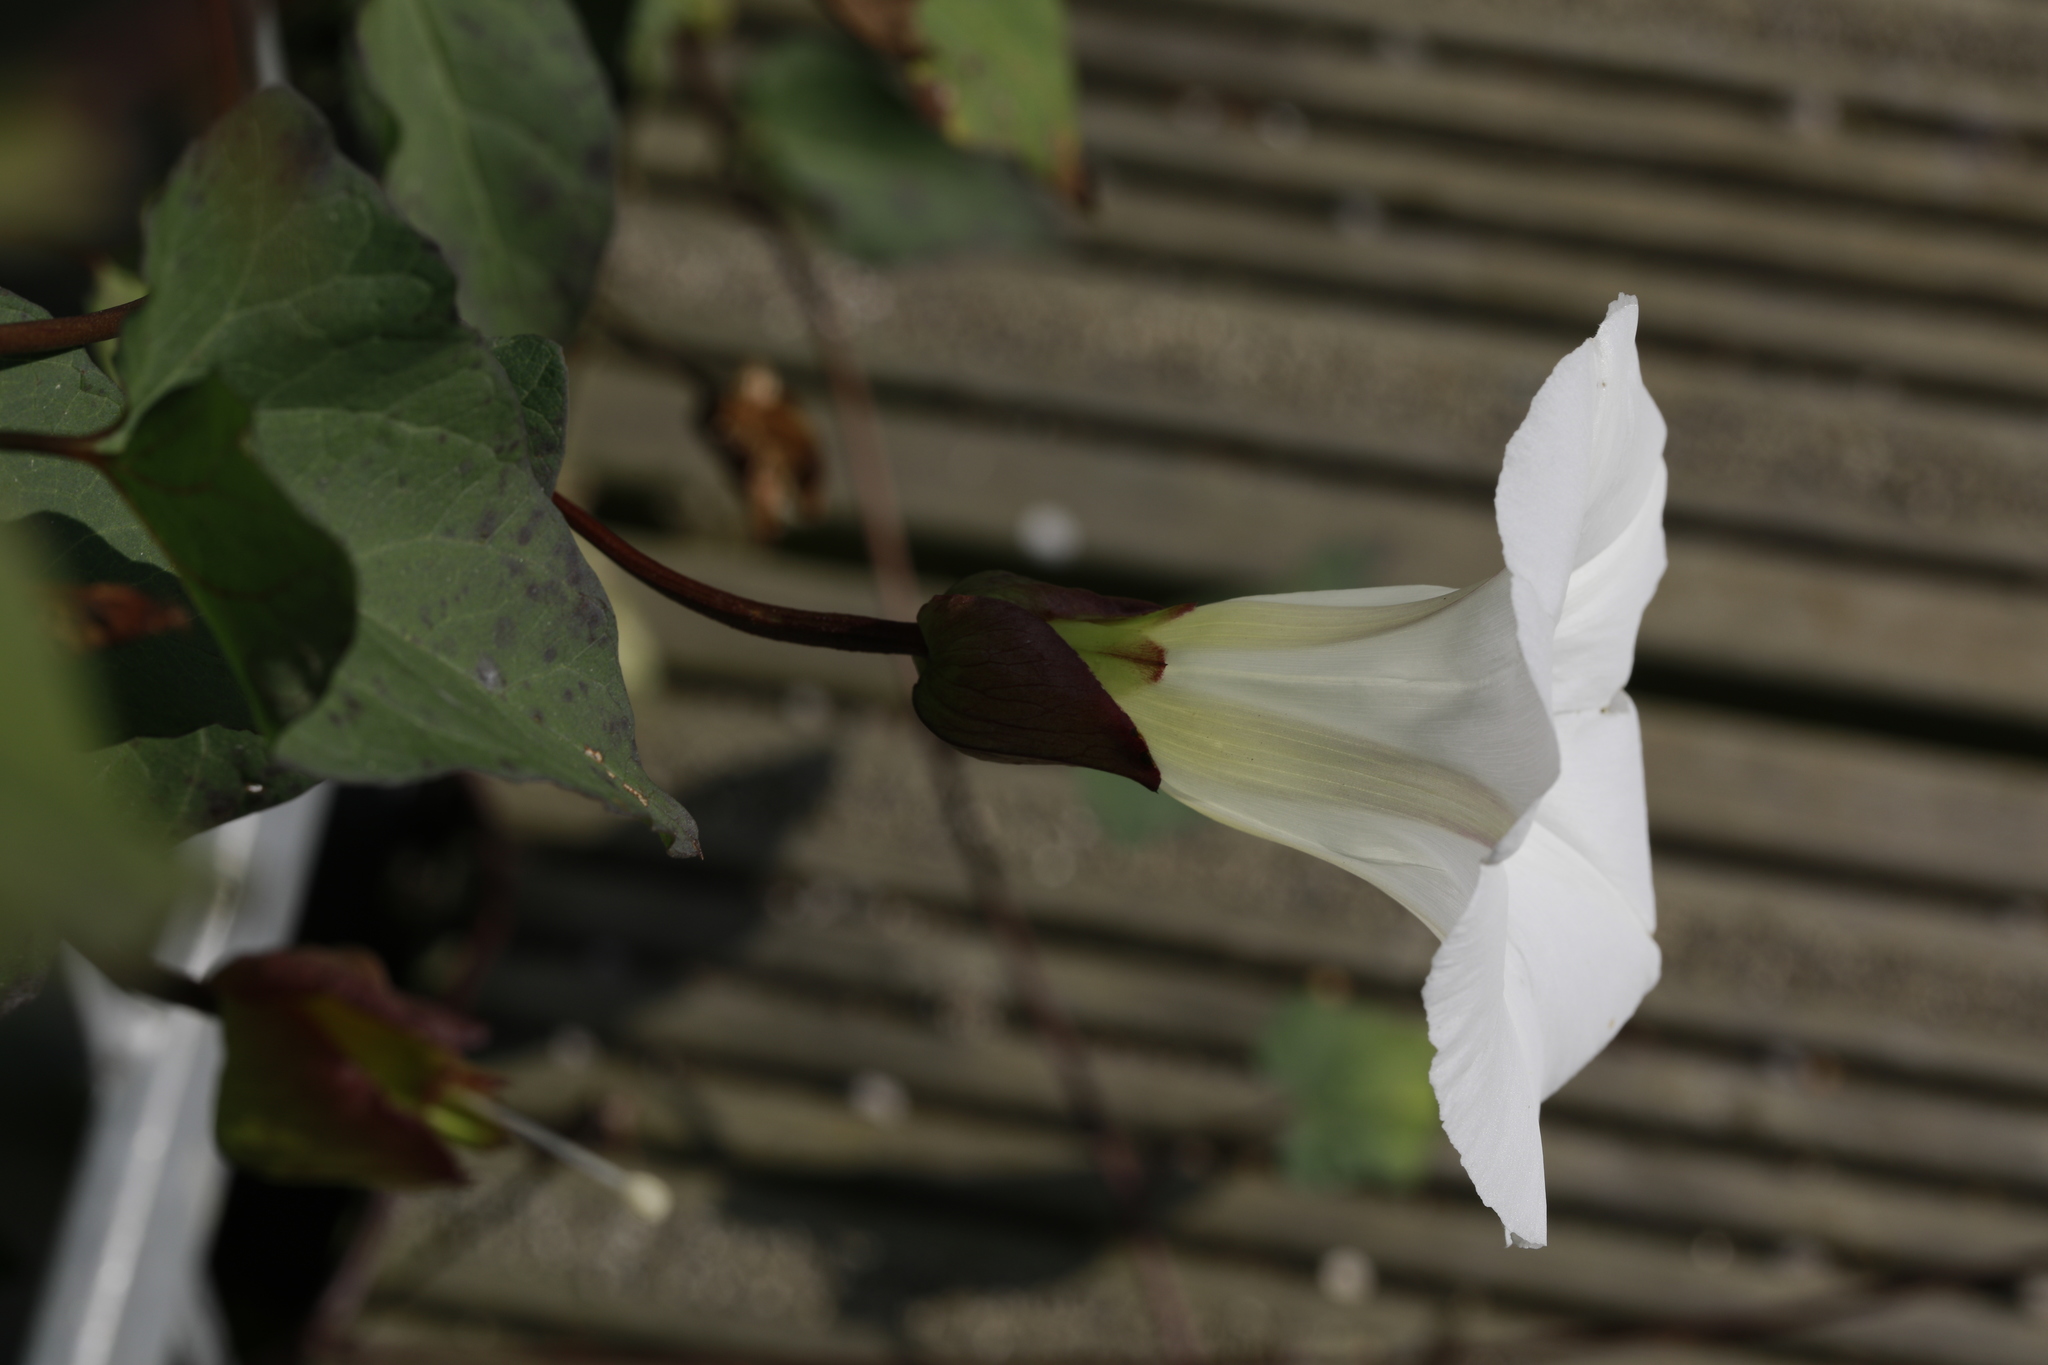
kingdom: Plantae
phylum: Tracheophyta
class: Magnoliopsida
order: Solanales
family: Convolvulaceae
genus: Calystegia
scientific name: Calystegia sepium
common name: Hedge bindweed
